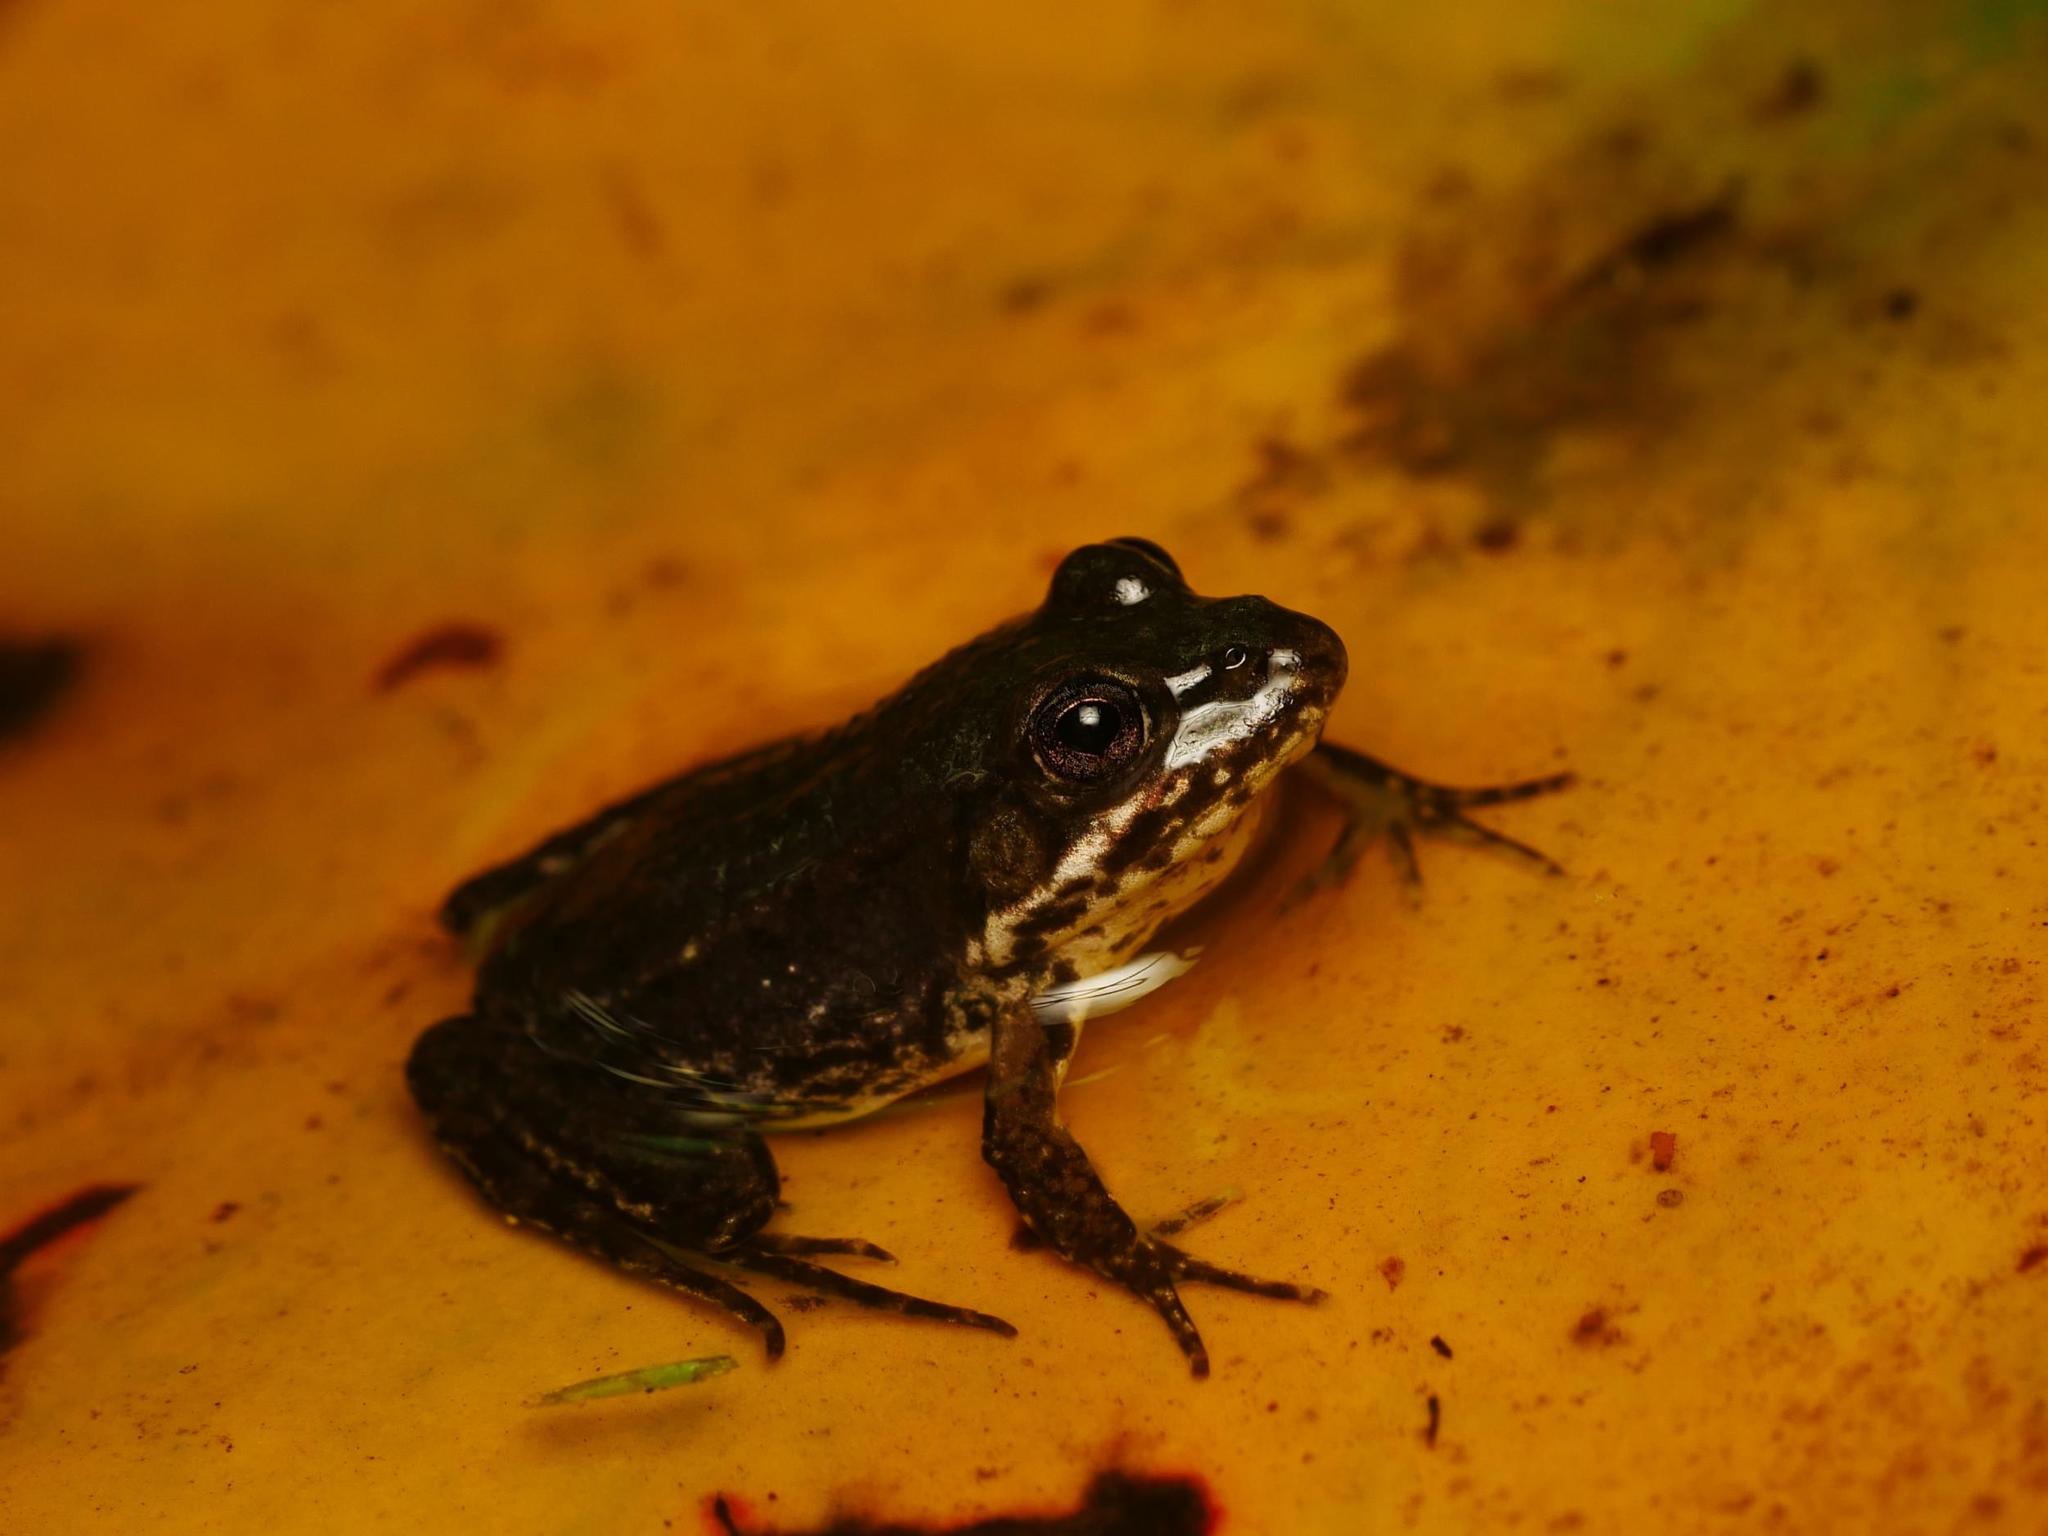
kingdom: Animalia
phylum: Chordata
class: Amphibia
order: Anura
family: Ranidae
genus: Pelophylax
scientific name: Pelophylax
